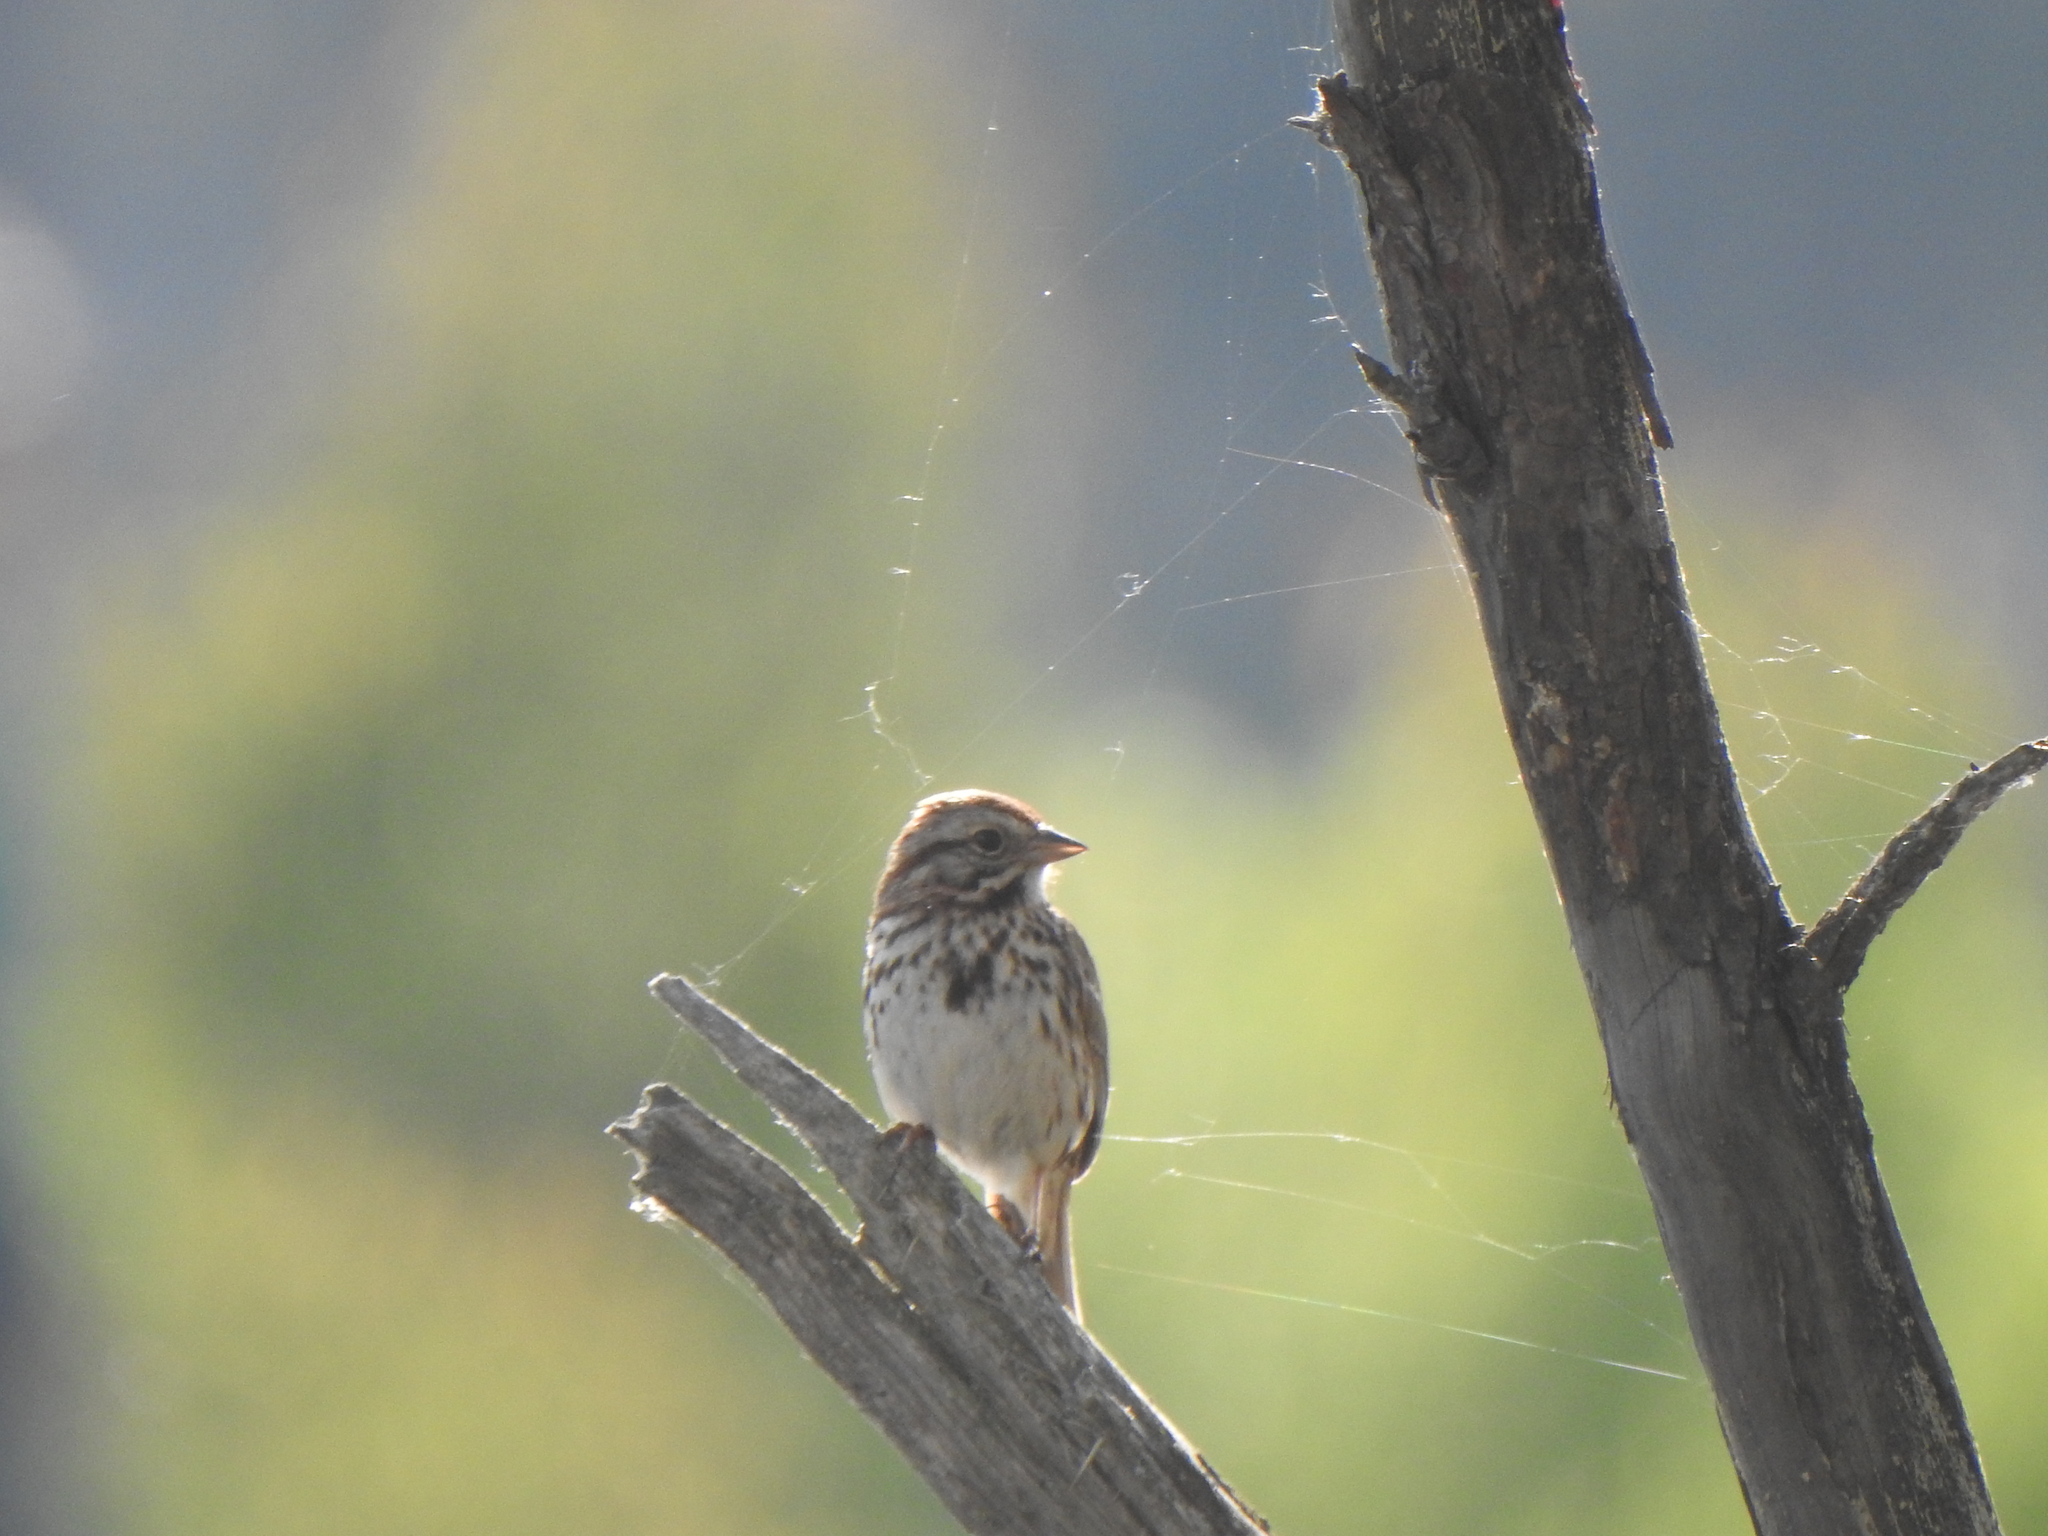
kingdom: Animalia
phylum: Chordata
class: Aves
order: Passeriformes
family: Passerellidae
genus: Melospiza
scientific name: Melospiza melodia
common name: Song sparrow
